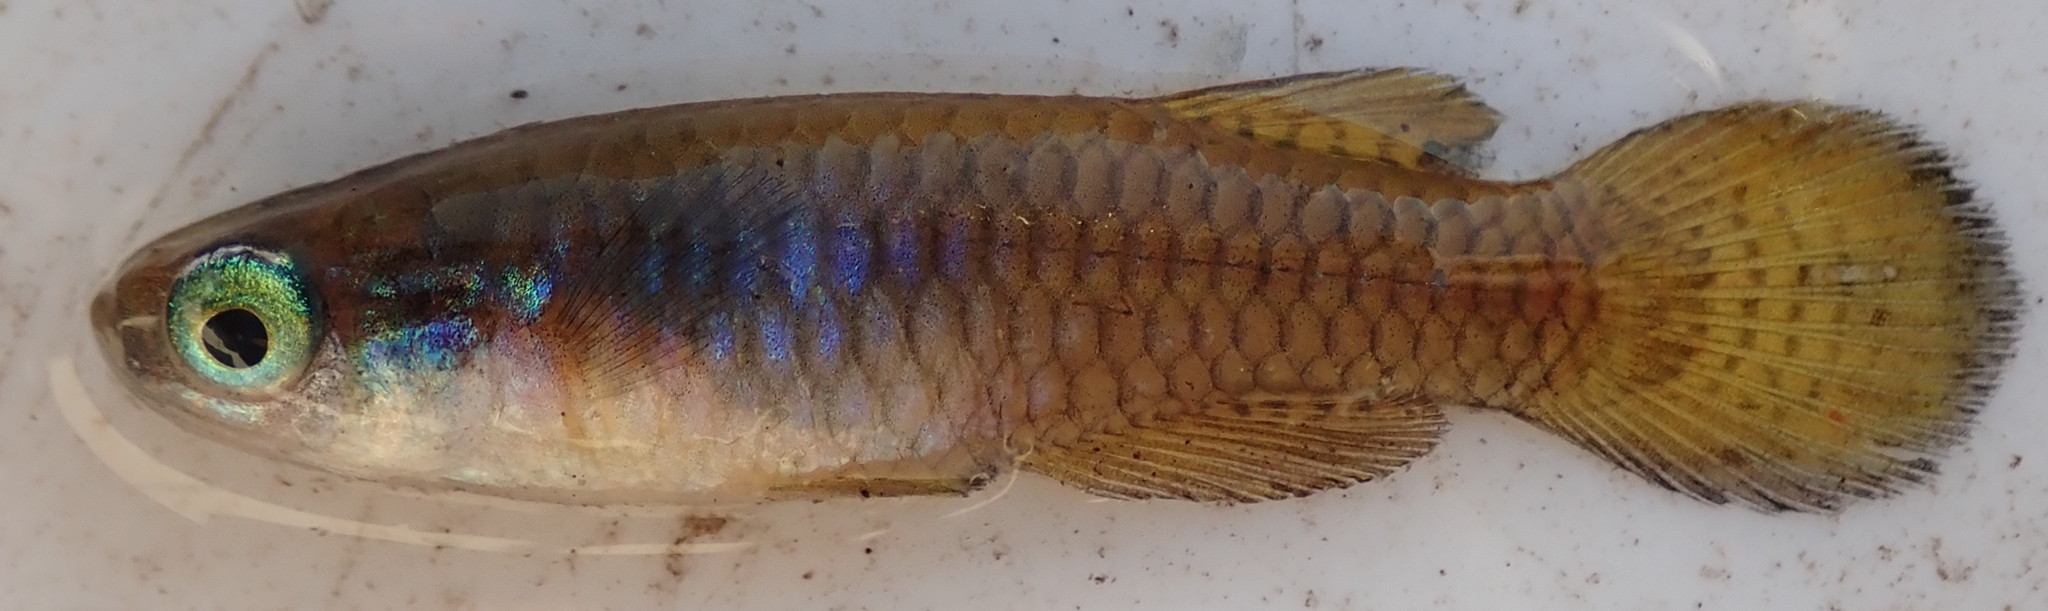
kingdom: Animalia
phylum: Chordata
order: Cyprinodontiformes
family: Poeciliidae
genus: Micropanchax
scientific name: Micropanchax hutereaui
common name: Meshscaled topminnow
